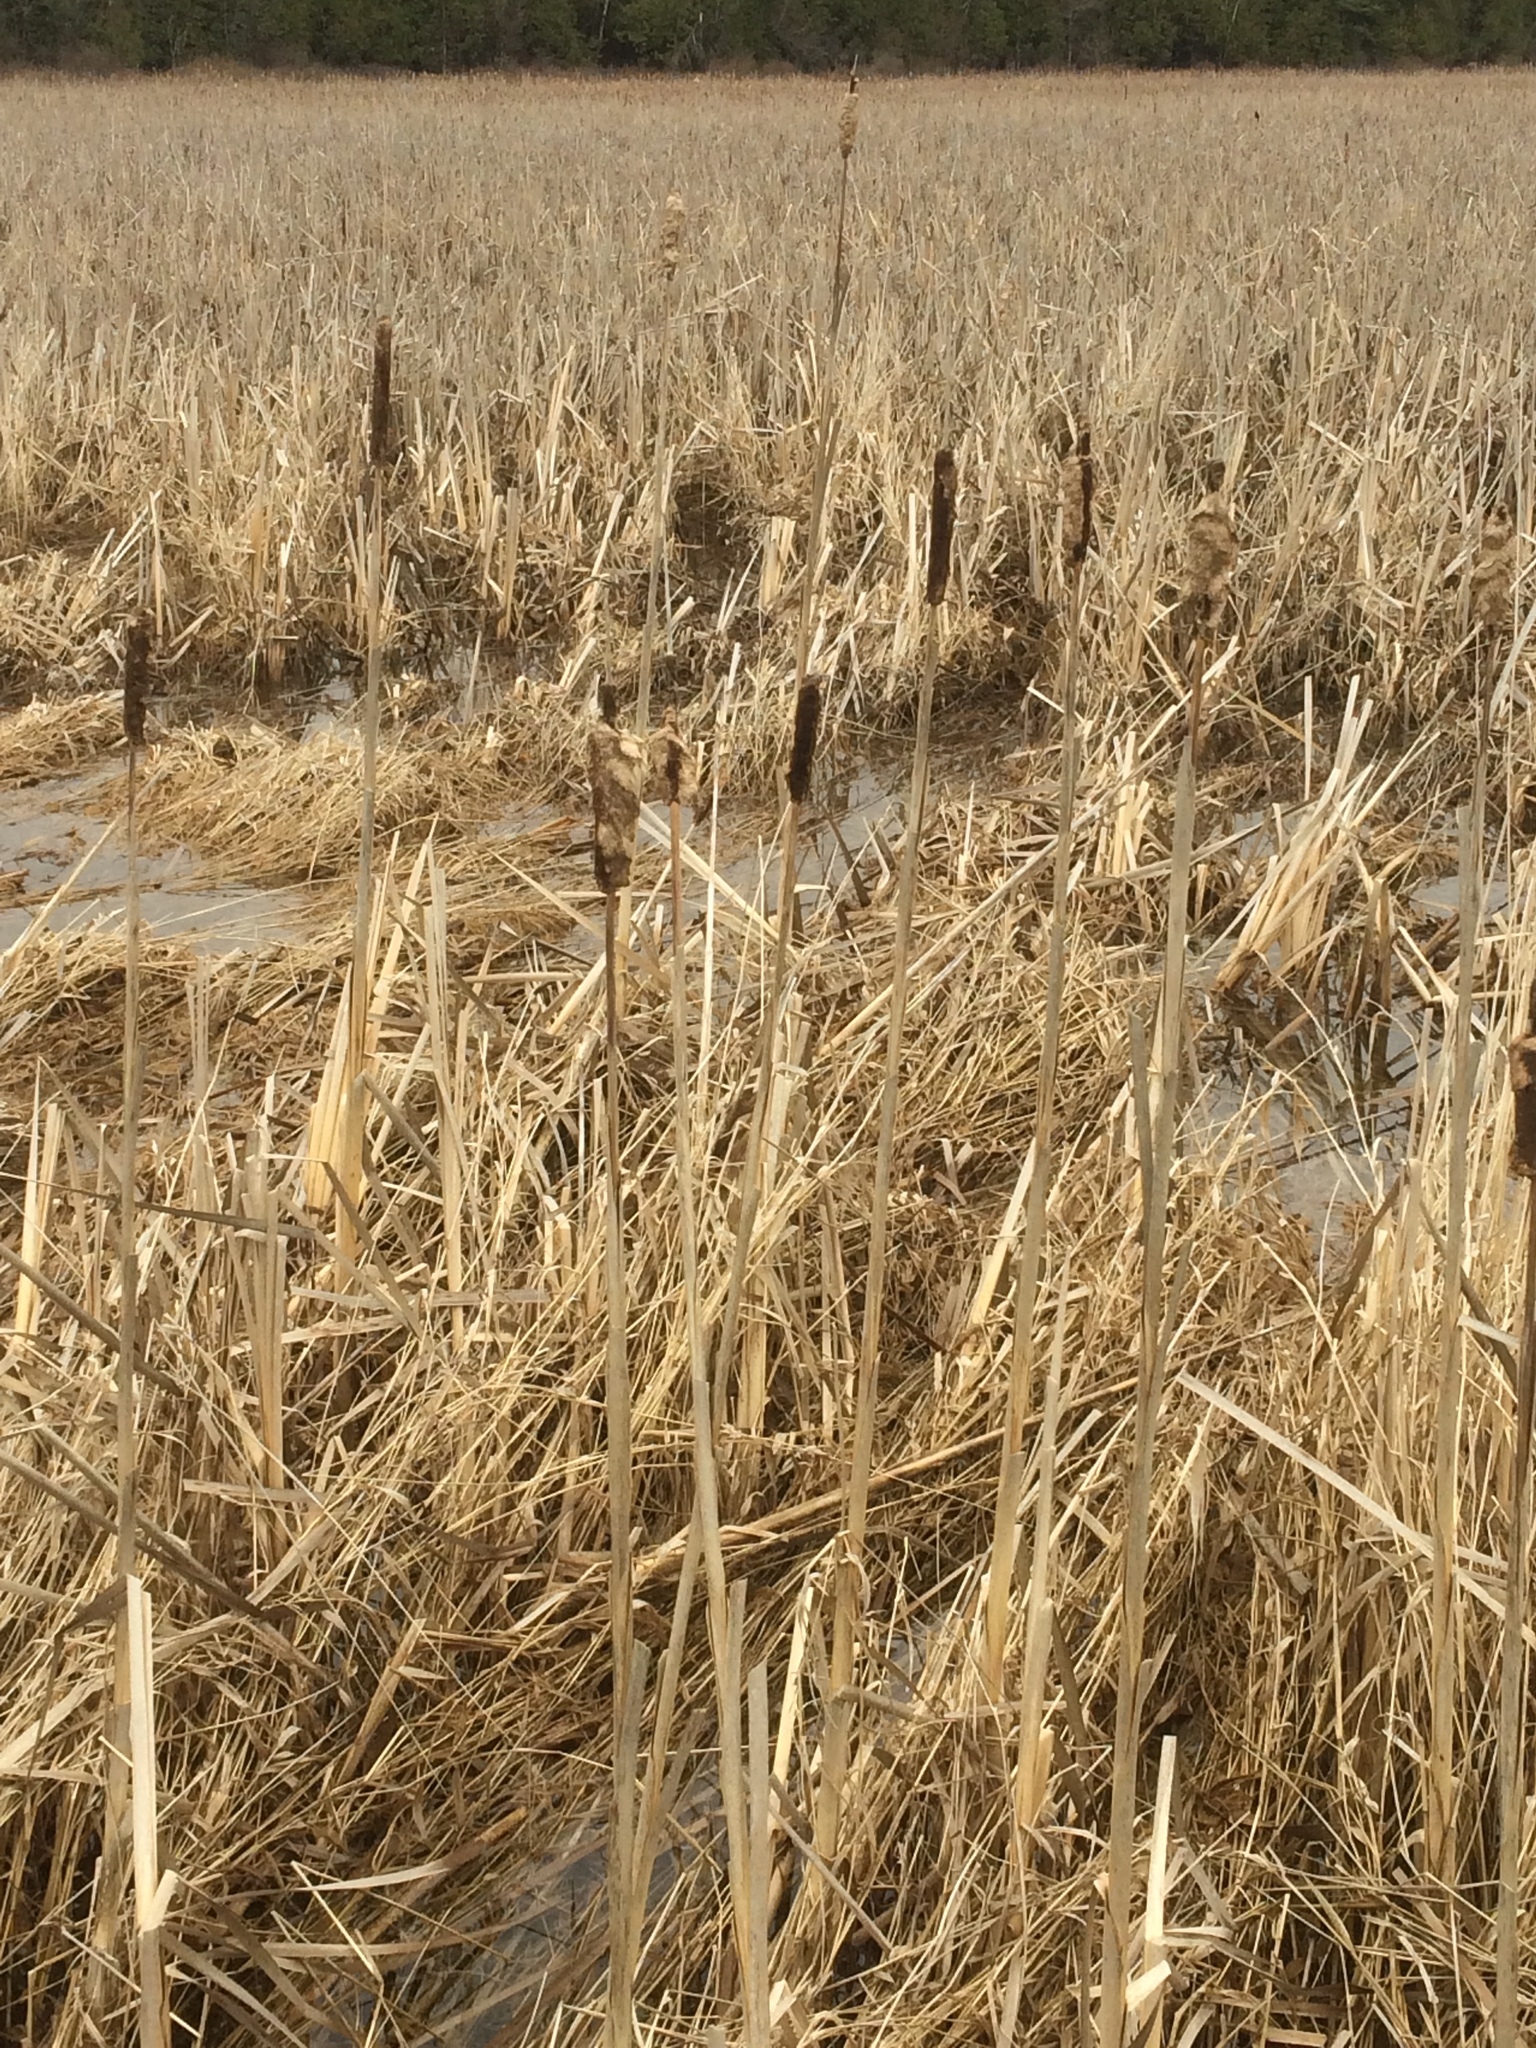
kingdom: Plantae
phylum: Tracheophyta
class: Liliopsida
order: Poales
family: Typhaceae
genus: Typha
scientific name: Typha angustifolia
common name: Lesser bulrush
